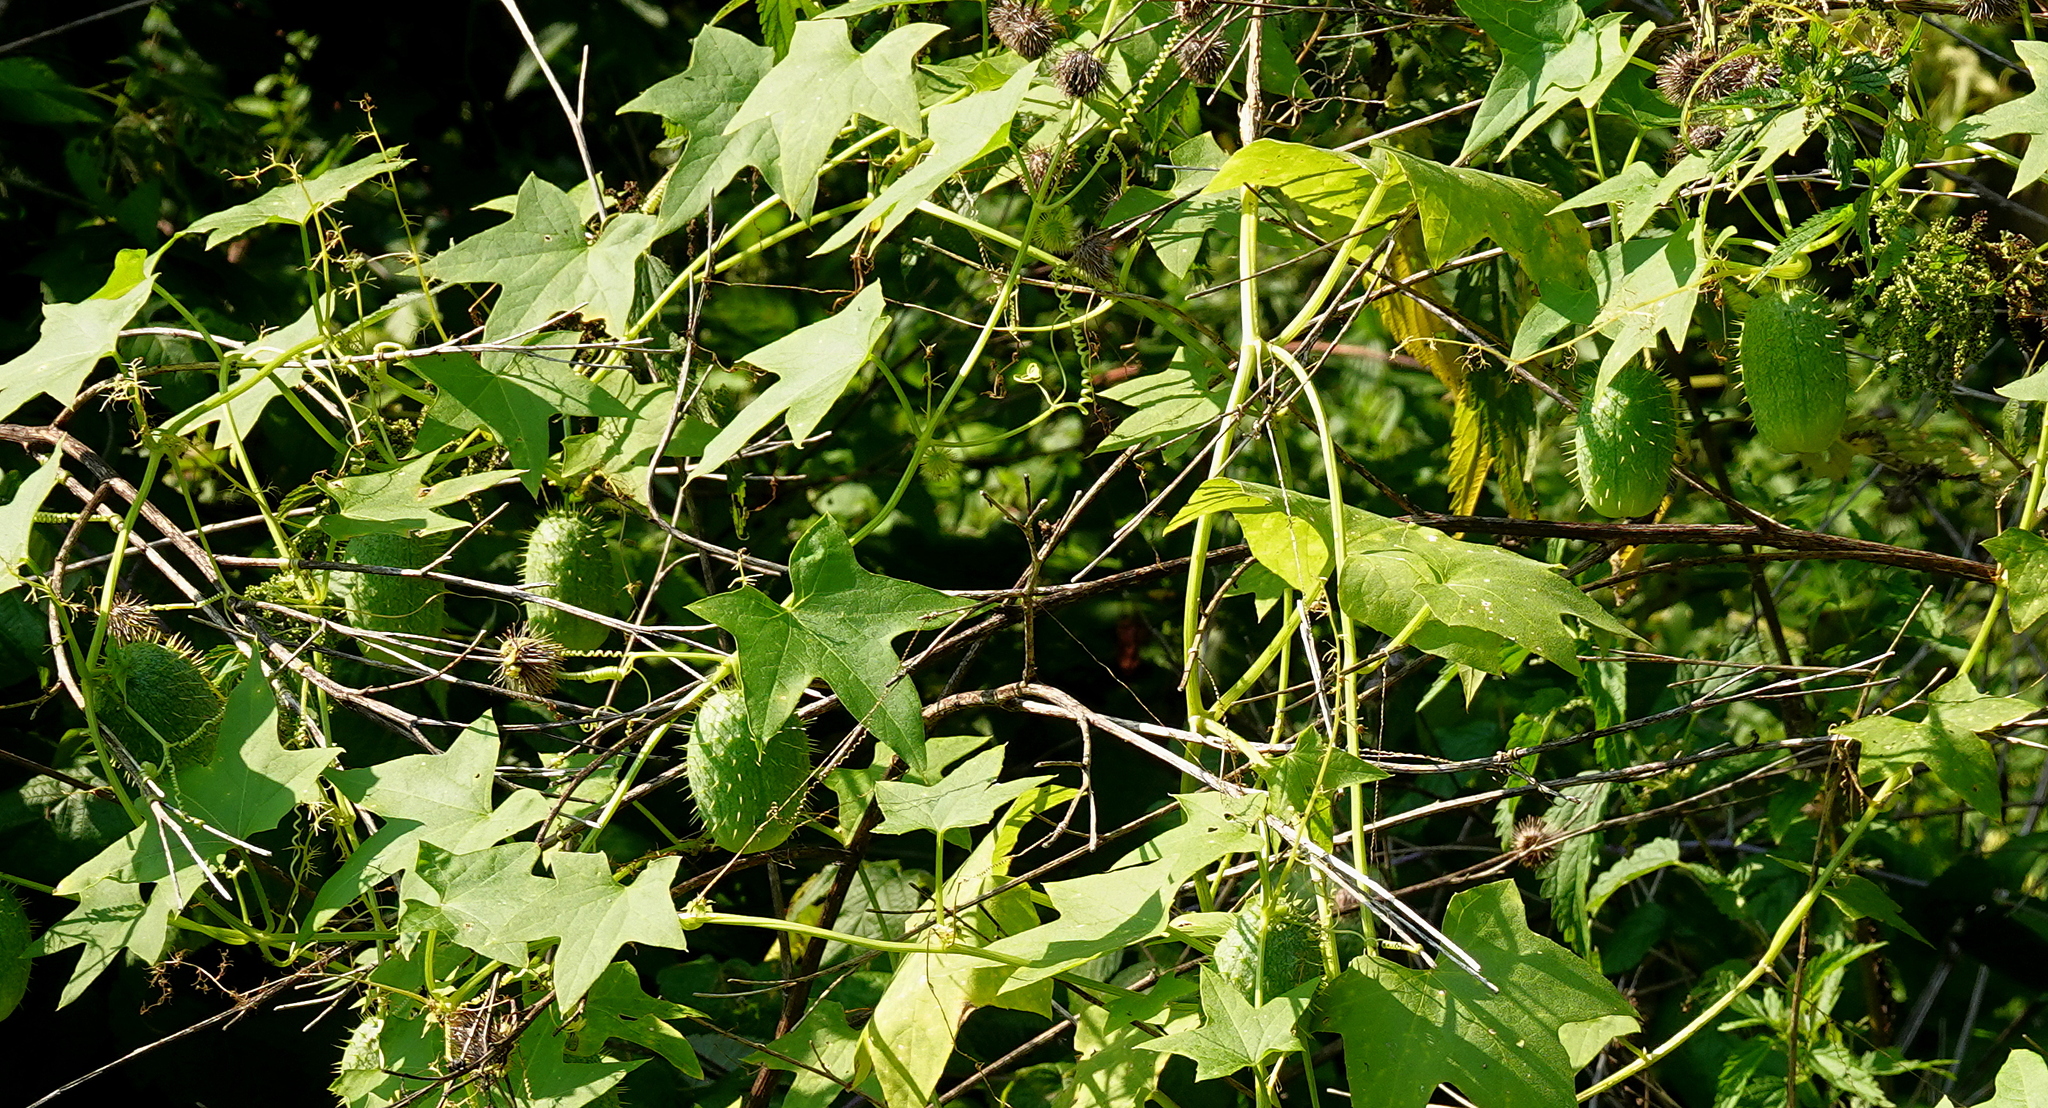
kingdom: Plantae
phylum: Tracheophyta
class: Magnoliopsida
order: Cucurbitales
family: Cucurbitaceae
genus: Echinocystis
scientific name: Echinocystis lobata
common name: Wild cucumber
